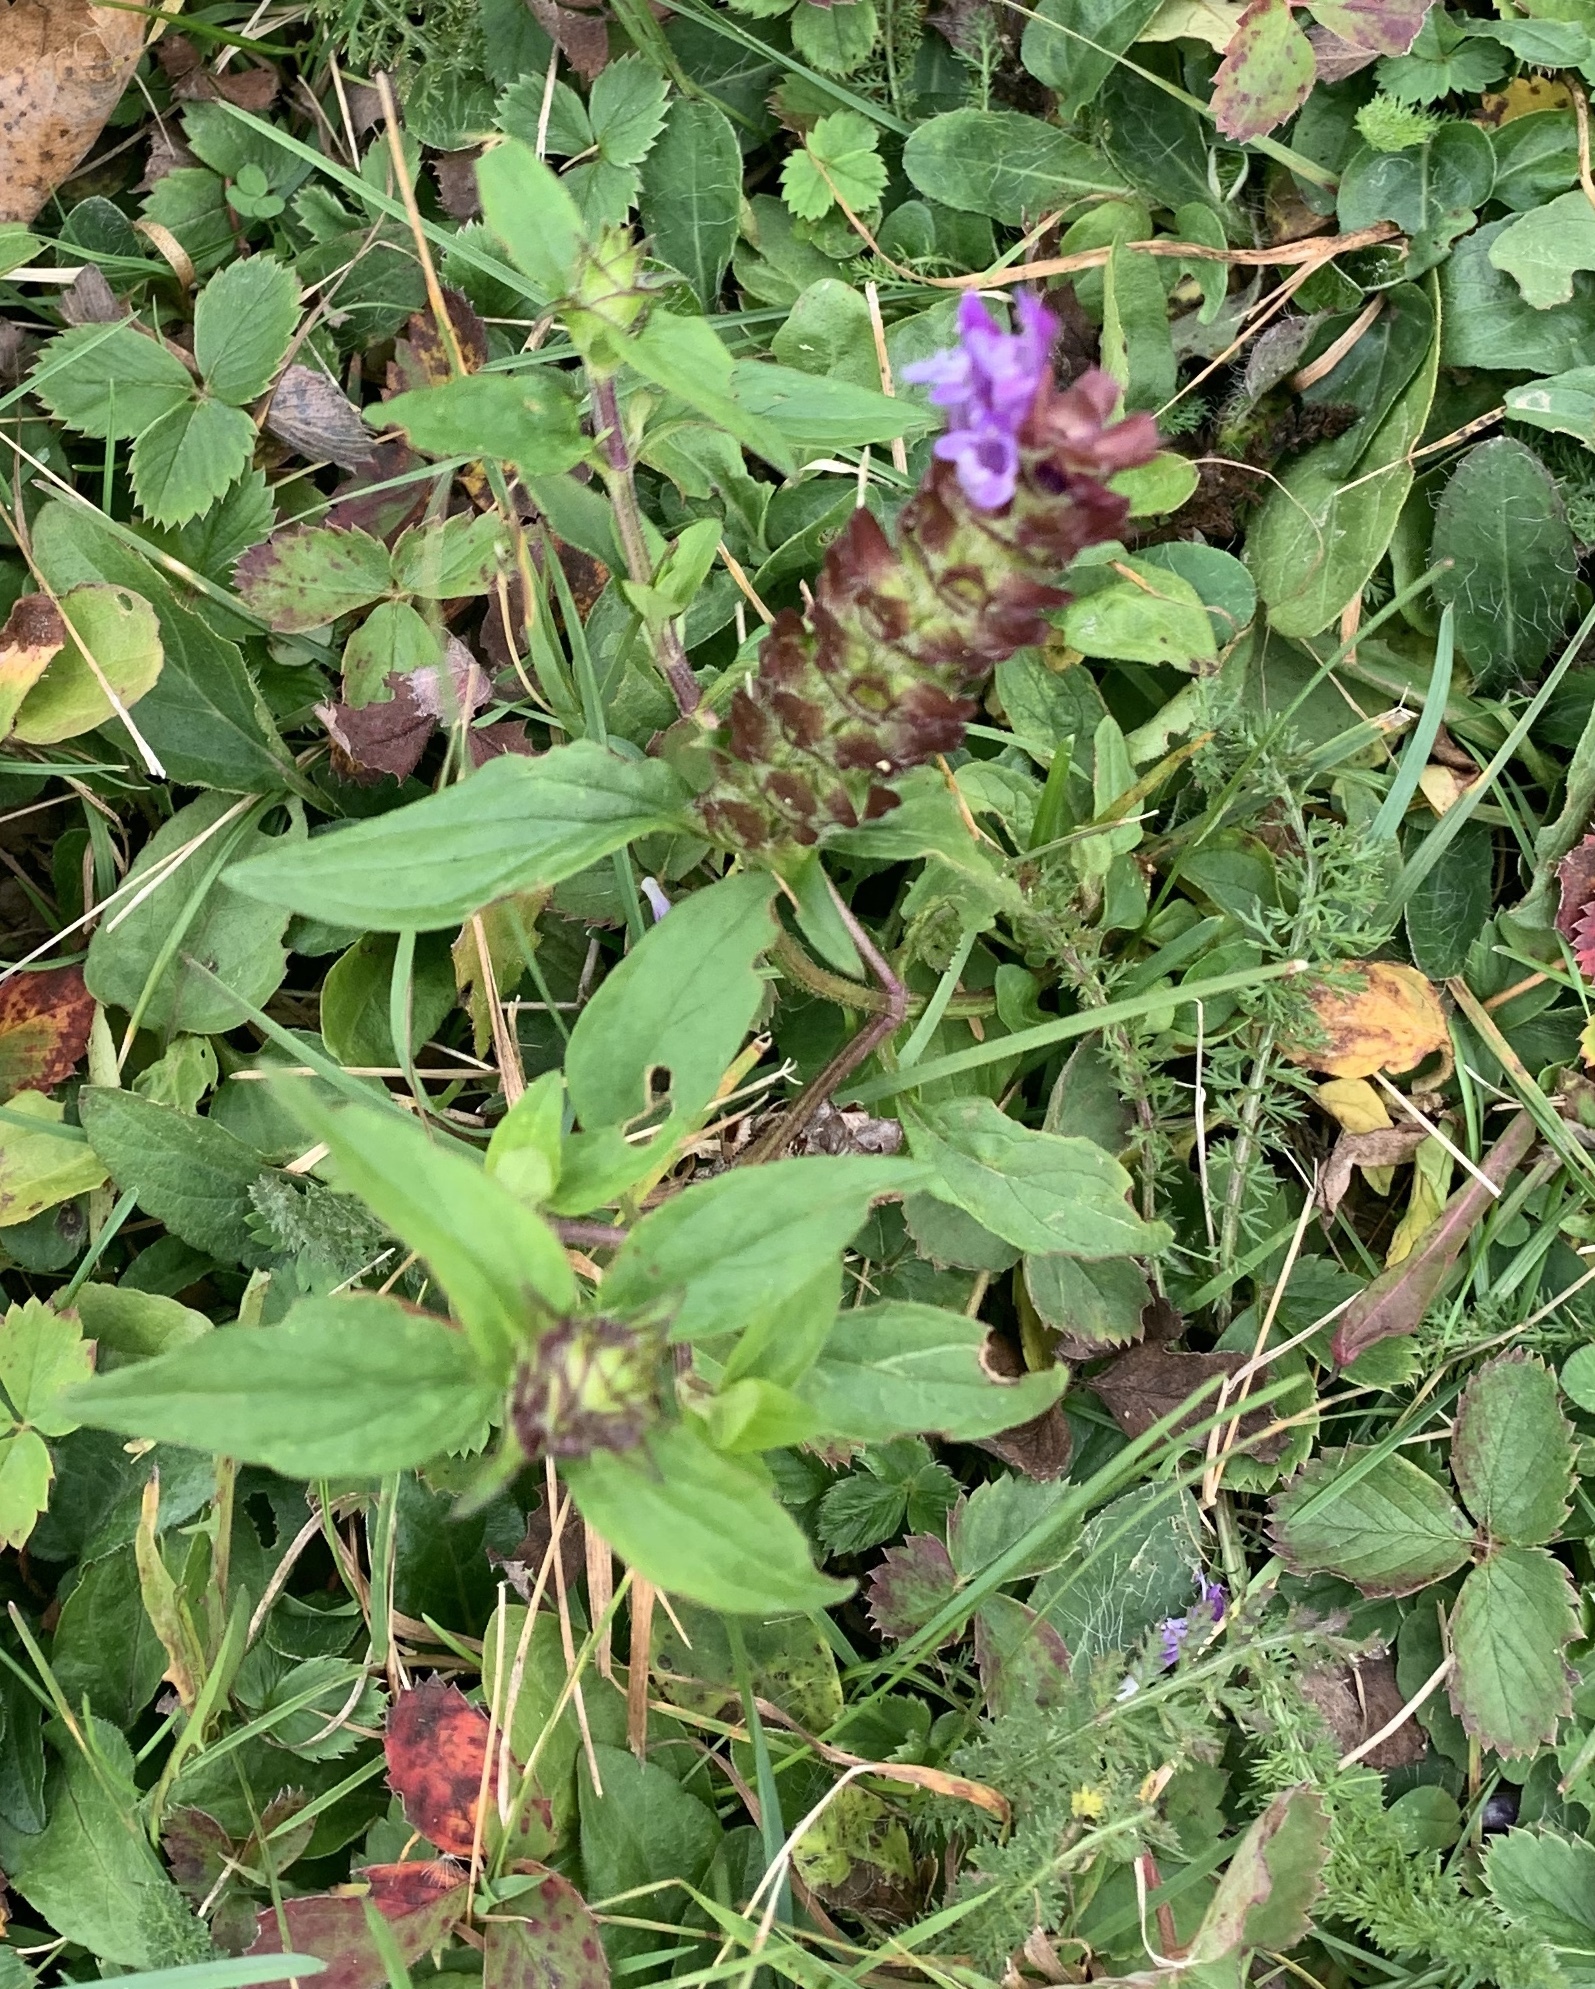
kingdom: Plantae
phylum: Tracheophyta
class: Magnoliopsida
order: Lamiales
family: Lamiaceae
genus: Prunella
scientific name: Prunella vulgaris
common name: Heal-all
